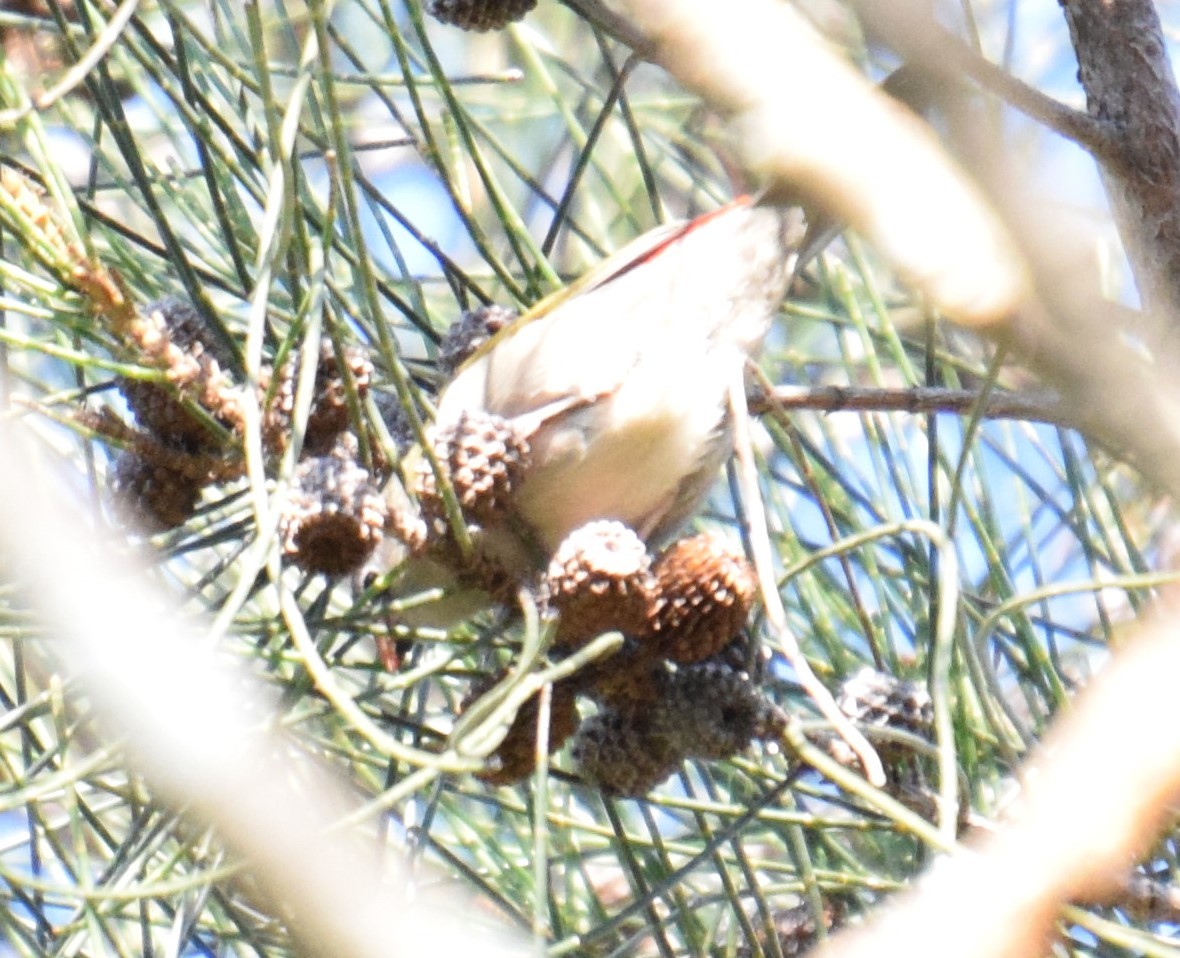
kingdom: Animalia
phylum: Chordata
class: Aves
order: Passeriformes
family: Estrildidae
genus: Neochmia
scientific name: Neochmia temporalis
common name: Red-browed finch
